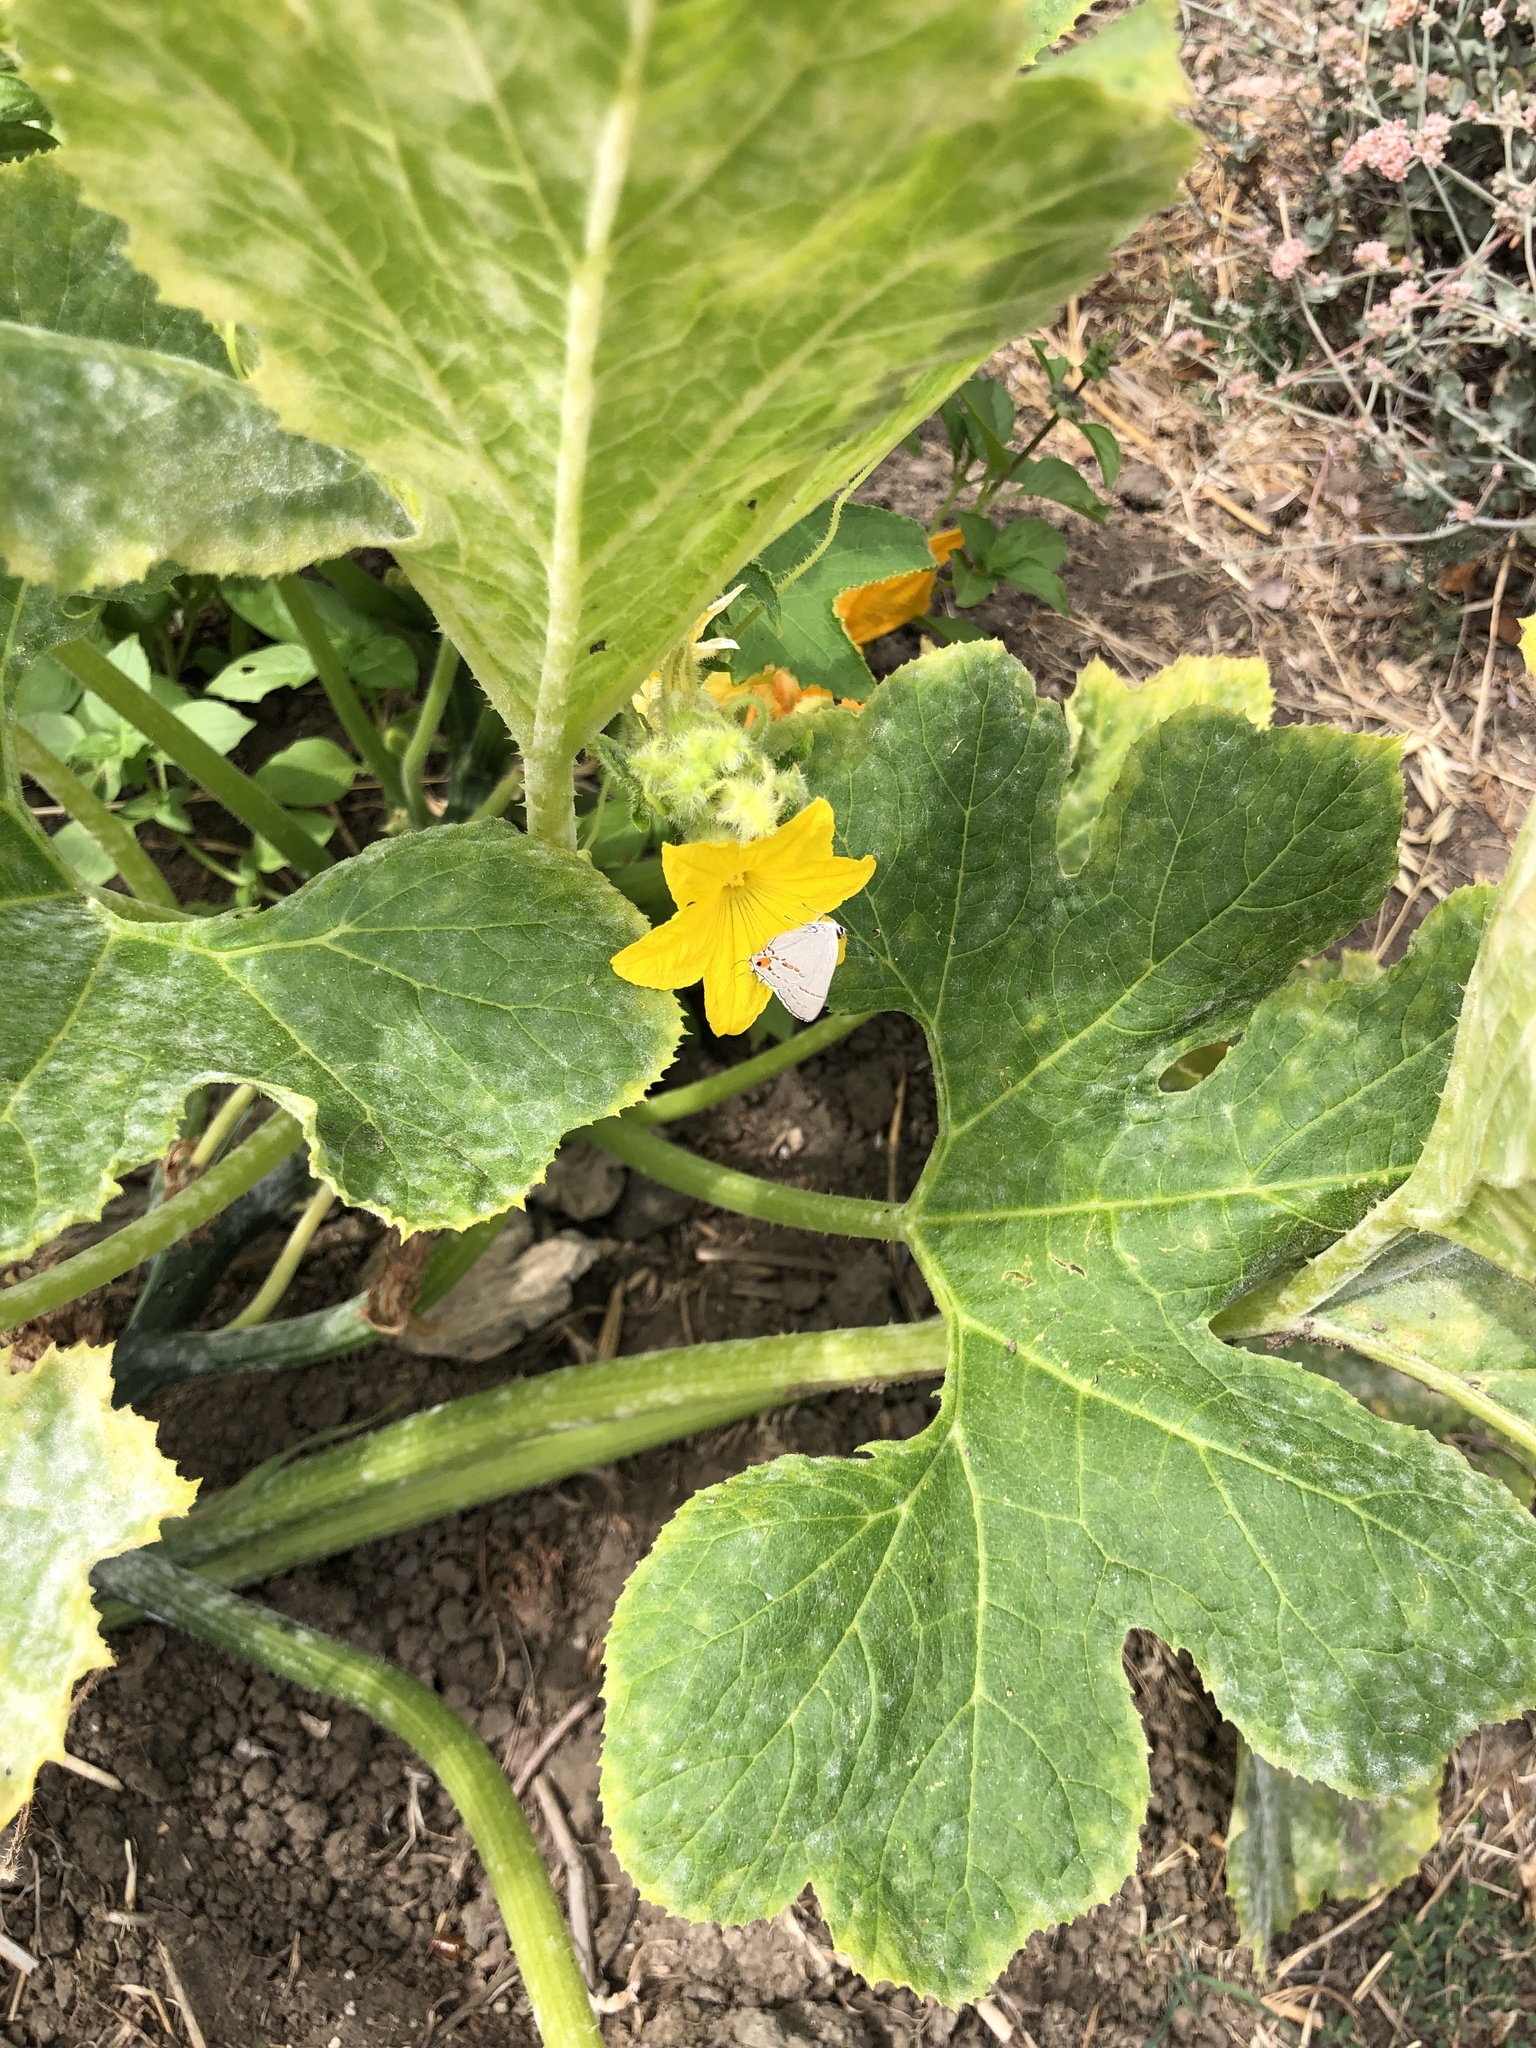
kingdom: Animalia
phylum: Arthropoda
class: Insecta
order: Lepidoptera
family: Lycaenidae
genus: Strymon
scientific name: Strymon melinus
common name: Gray hairstreak
